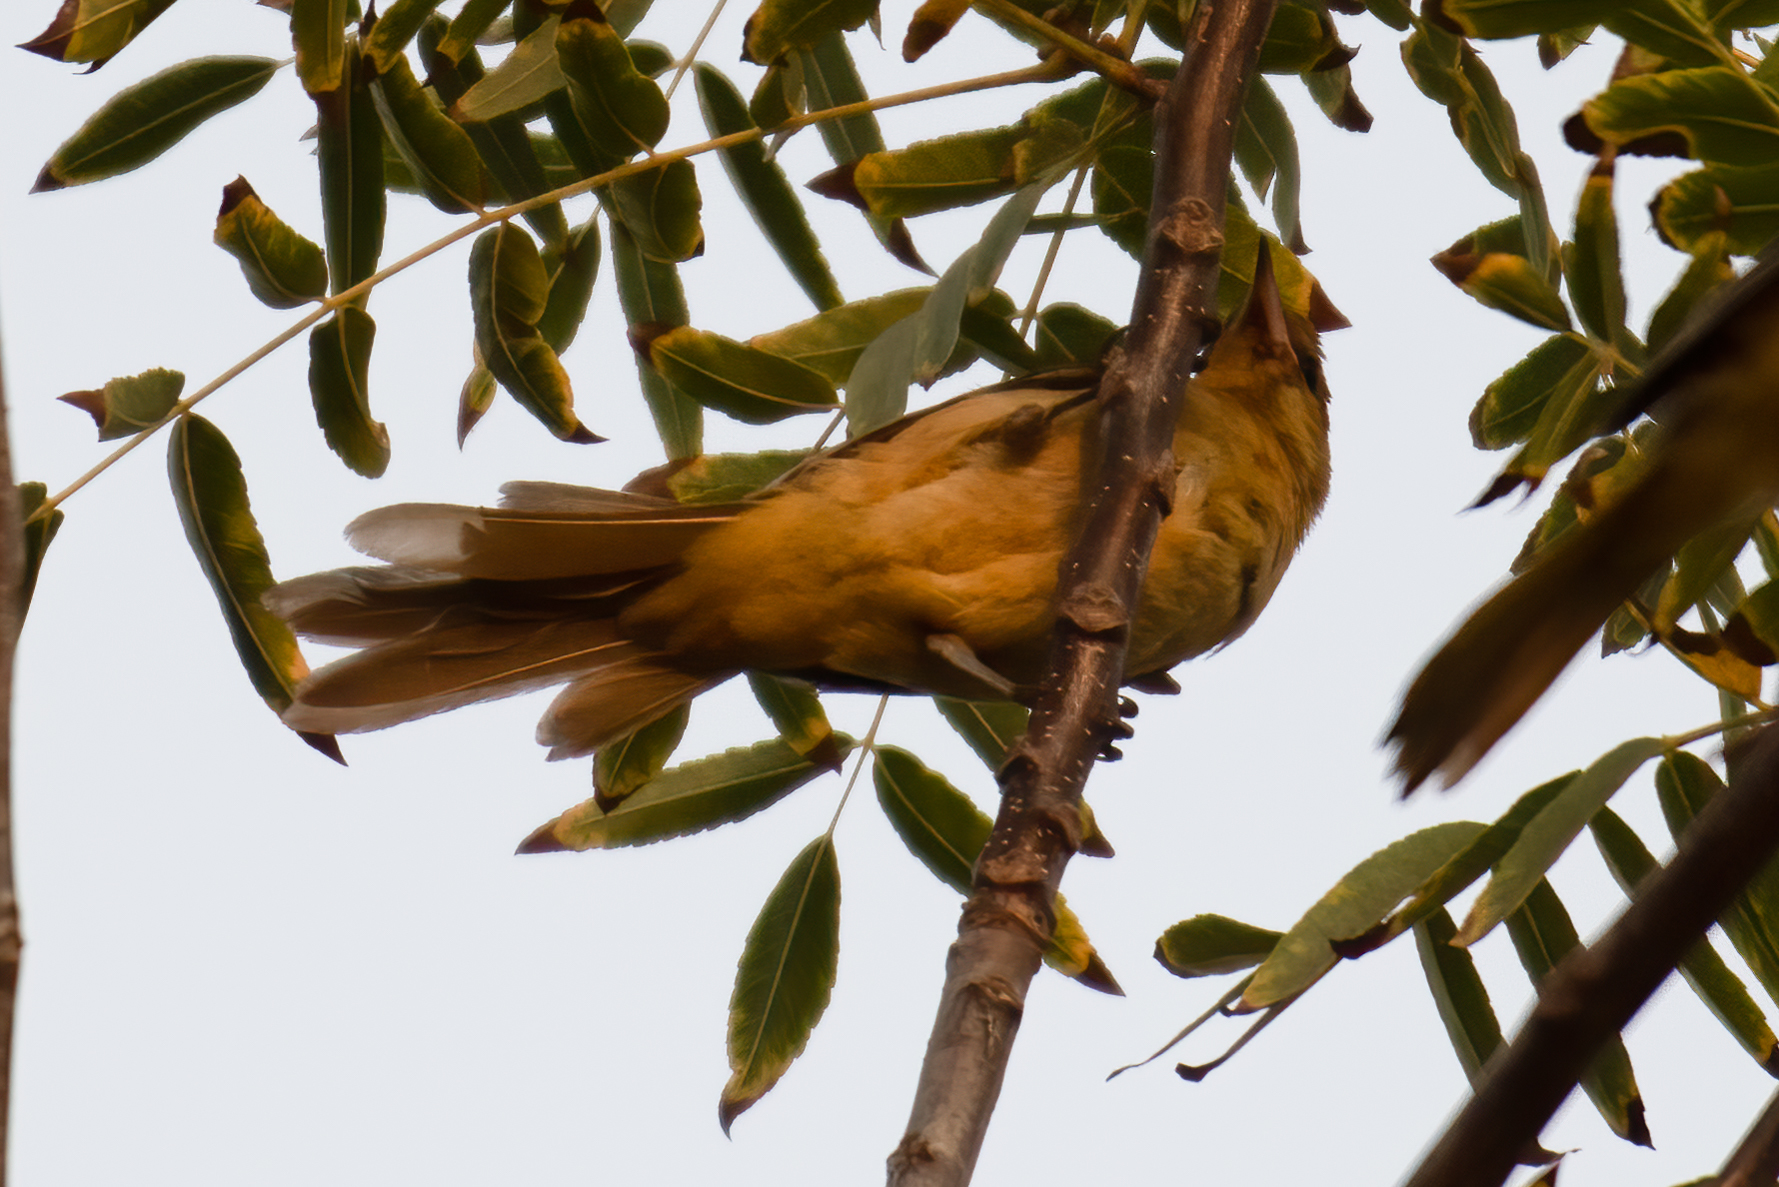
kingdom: Animalia
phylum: Chordata
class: Aves
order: Passeriformes
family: Icteridae
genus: Icterus
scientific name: Icterus cucullatus
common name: Hooded oriole
